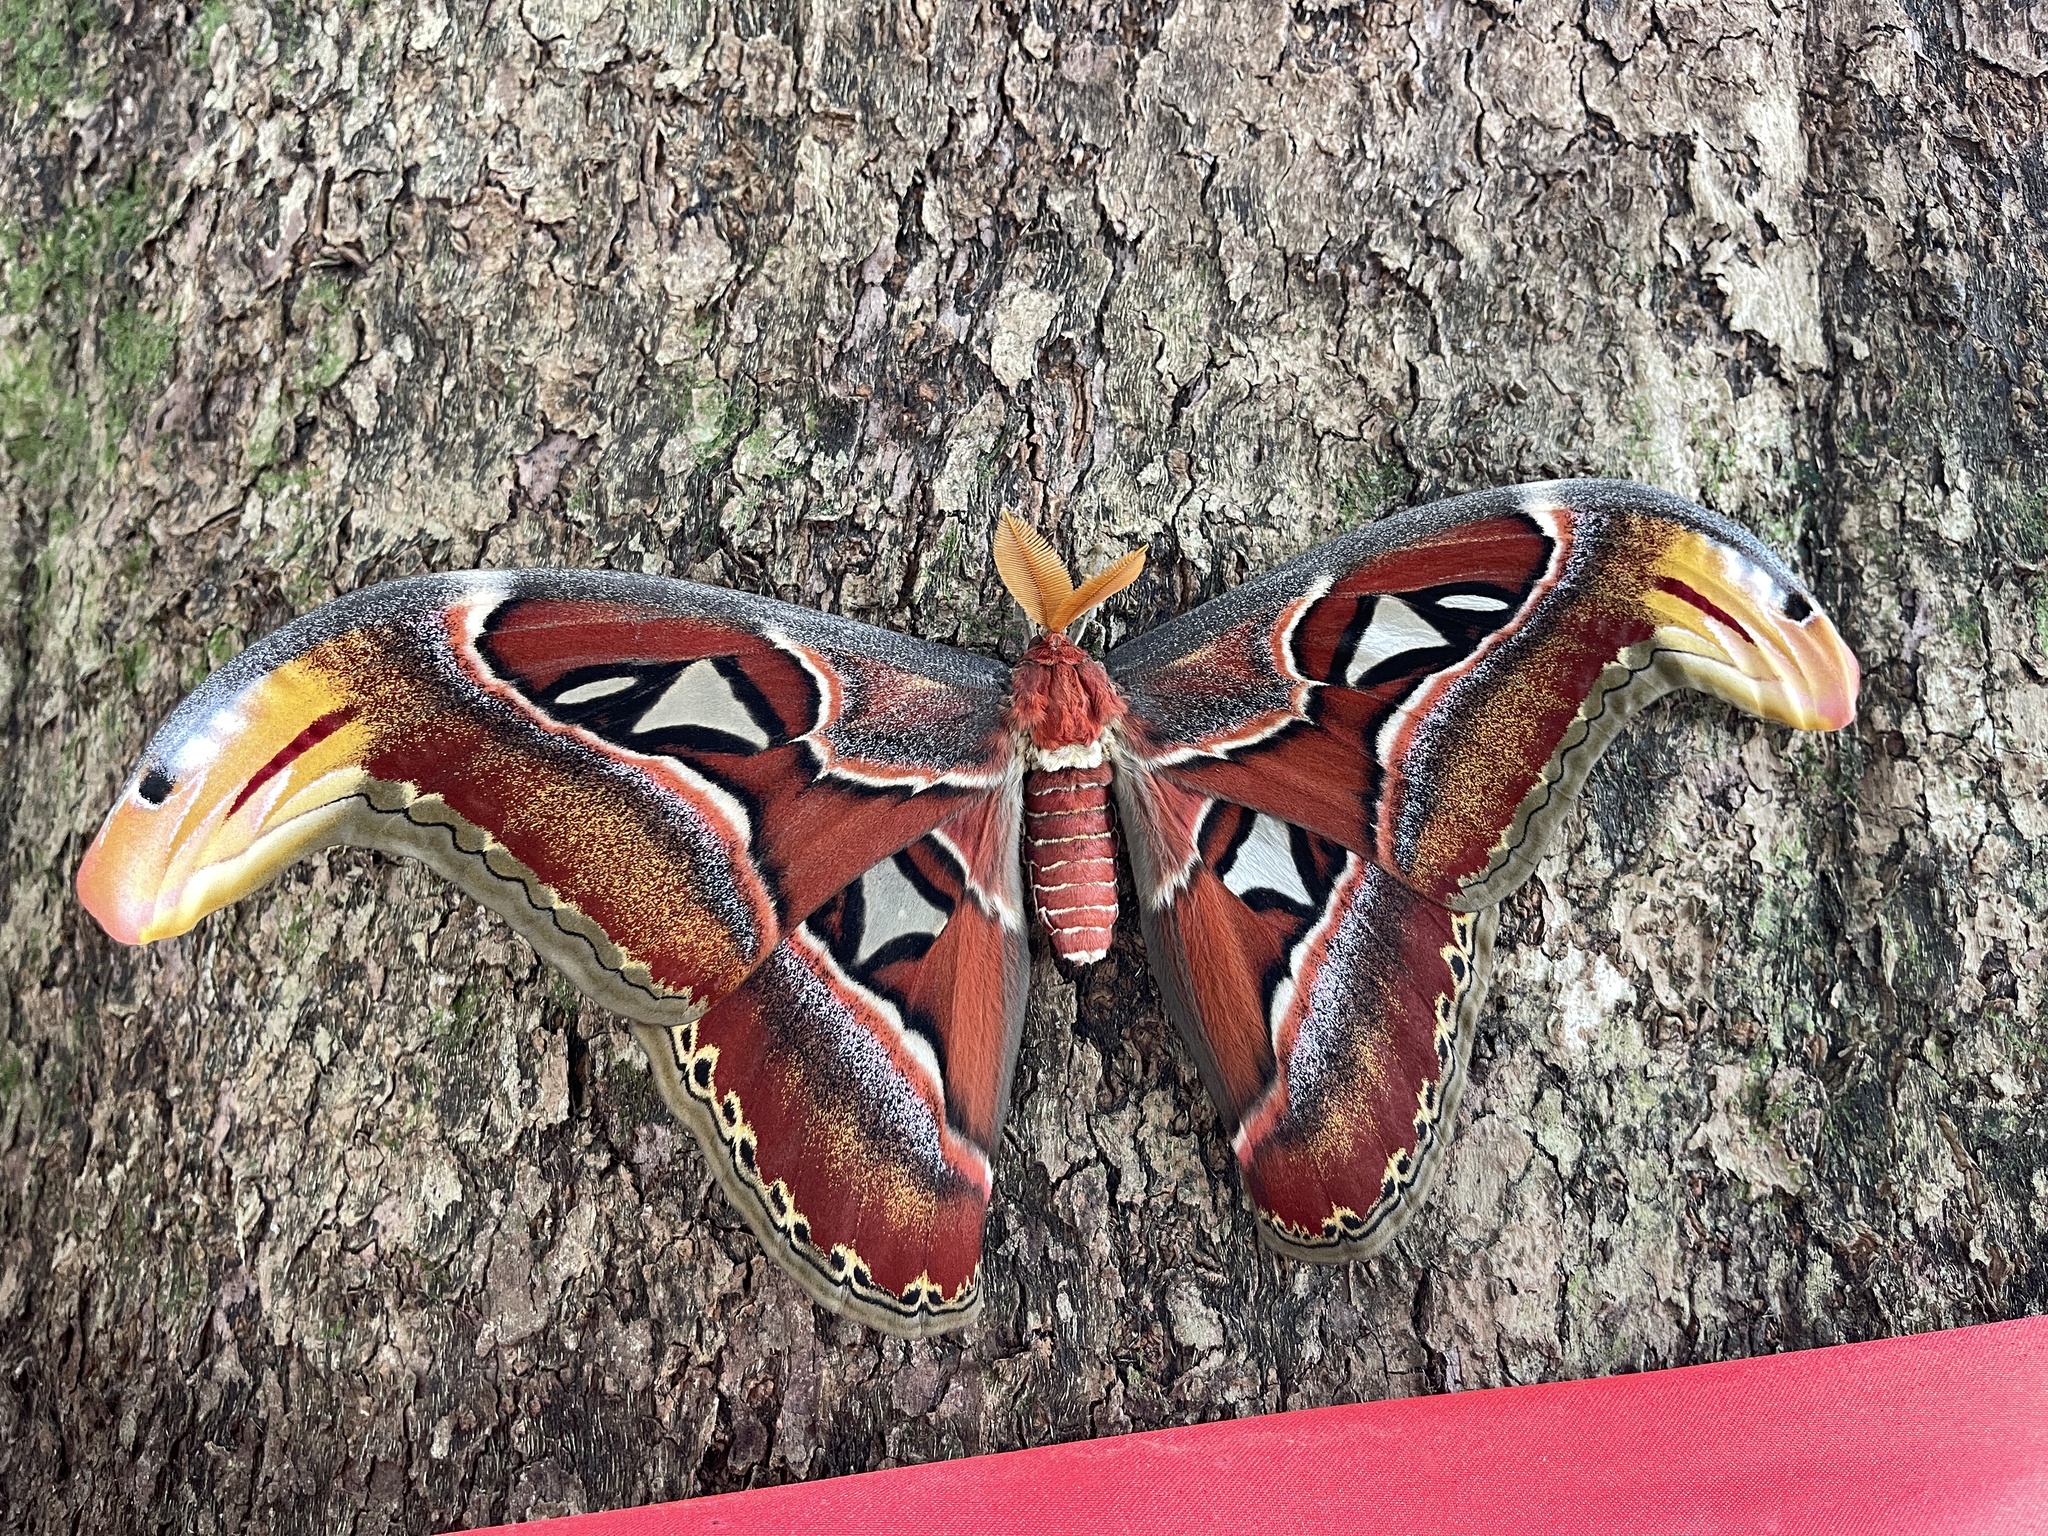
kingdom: Animalia
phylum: Arthropoda
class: Insecta
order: Lepidoptera
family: Saturniidae
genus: Attacus
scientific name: Attacus atlas
